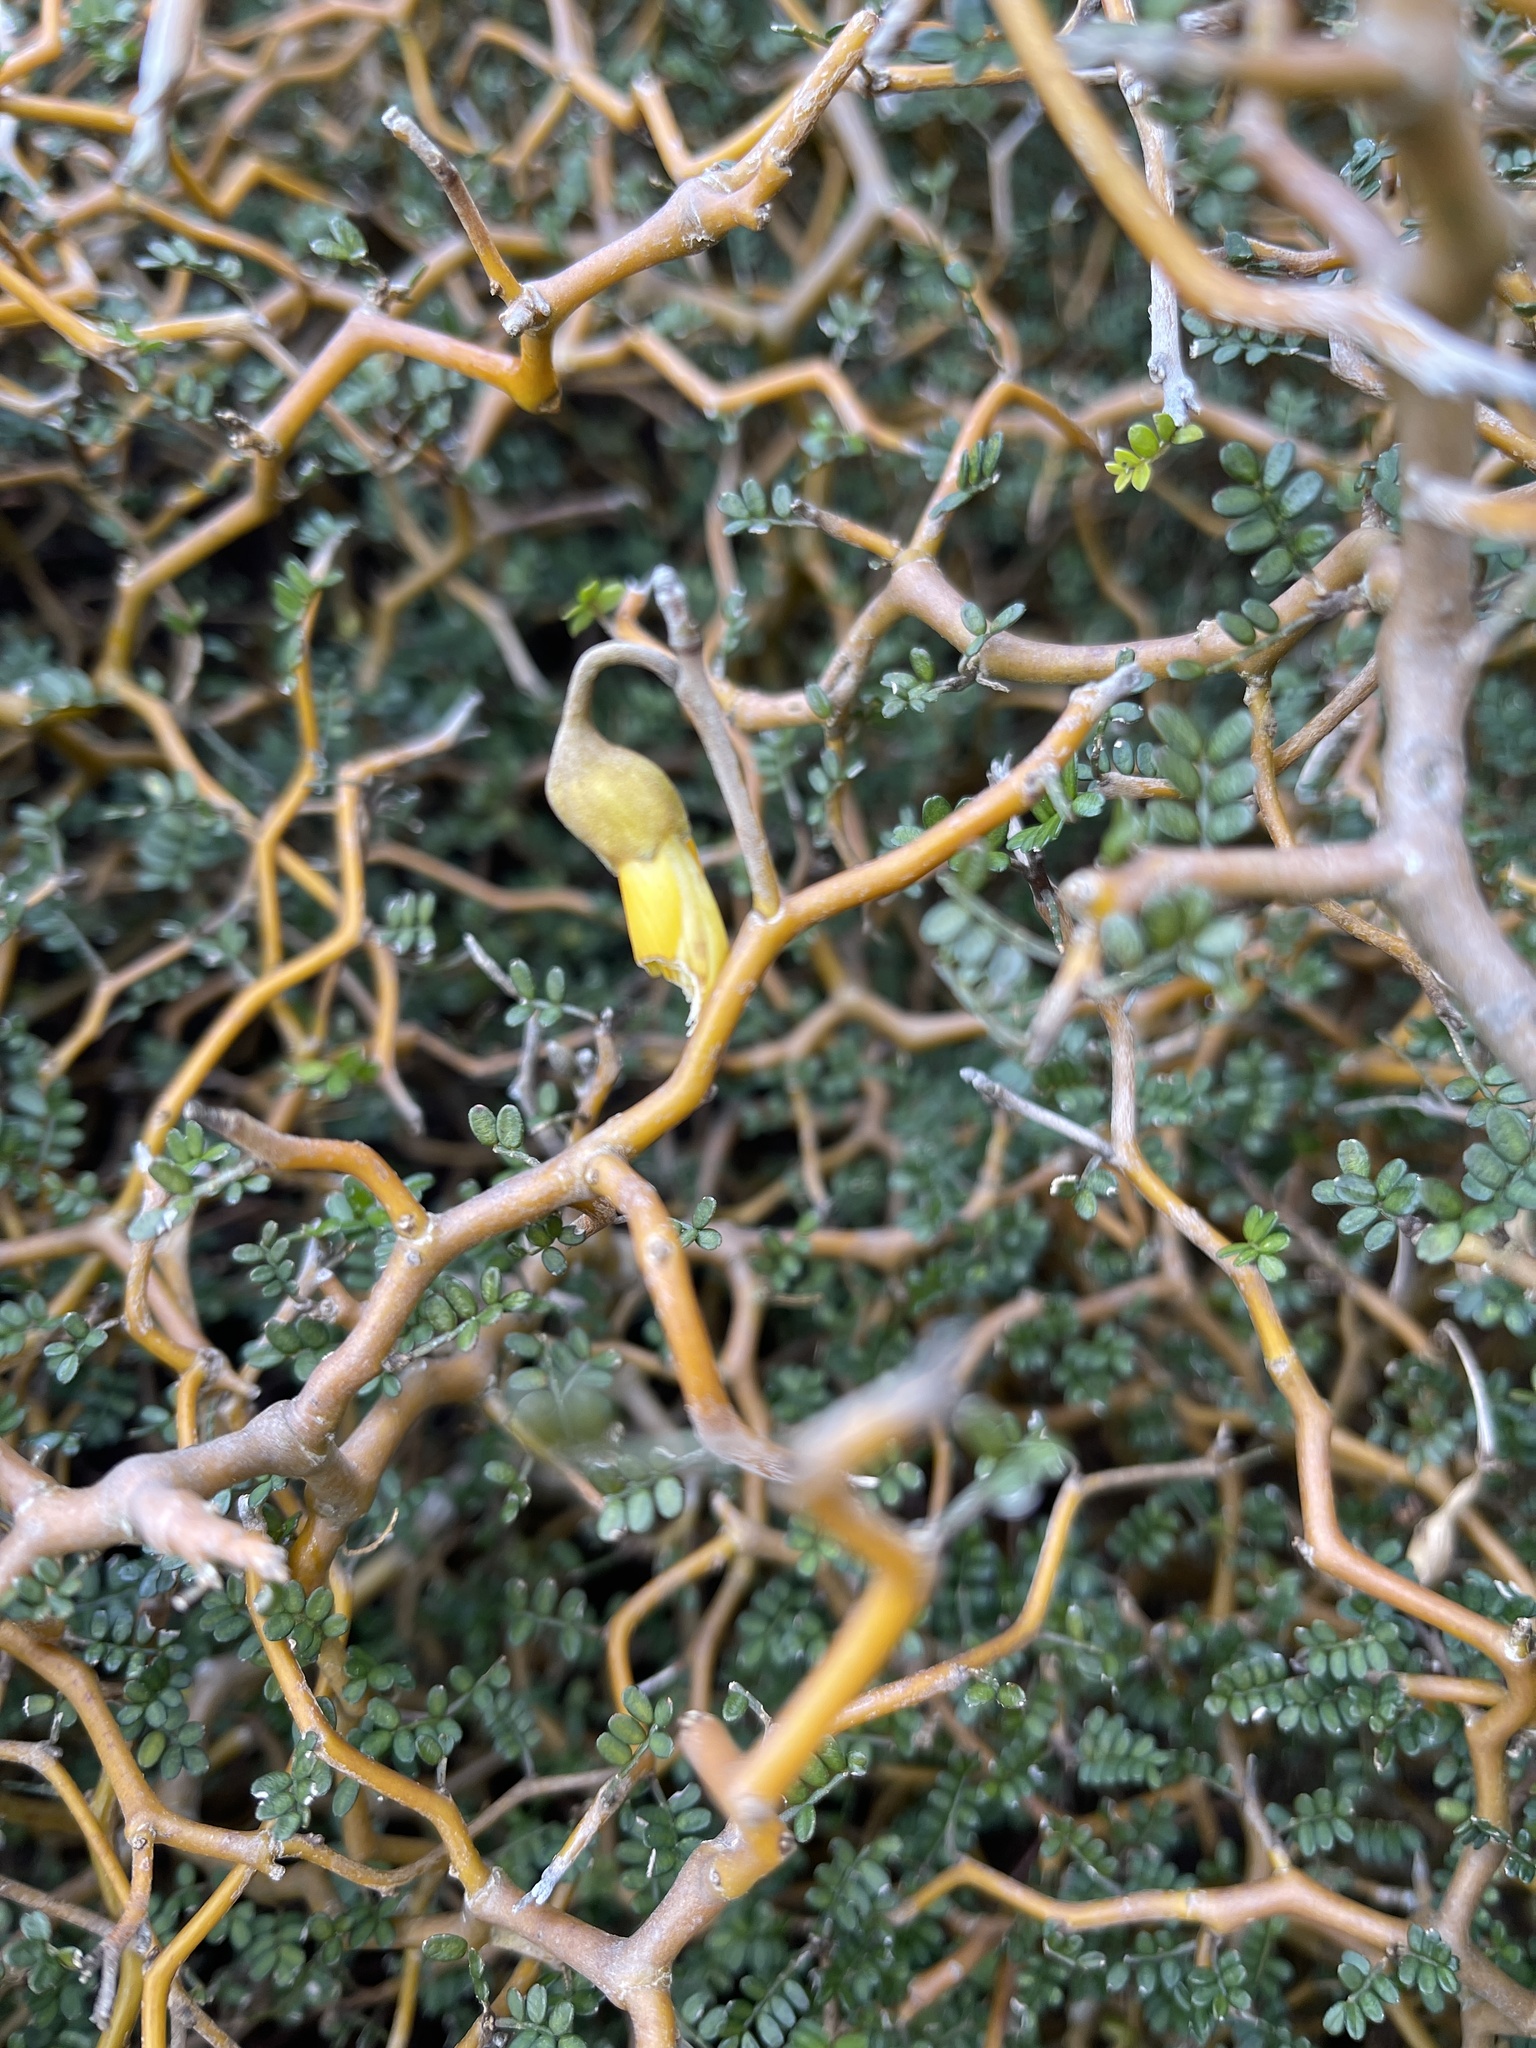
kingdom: Plantae
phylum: Tracheophyta
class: Magnoliopsida
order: Fabales
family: Fabaceae
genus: Sophora
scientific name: Sophora prostrata
